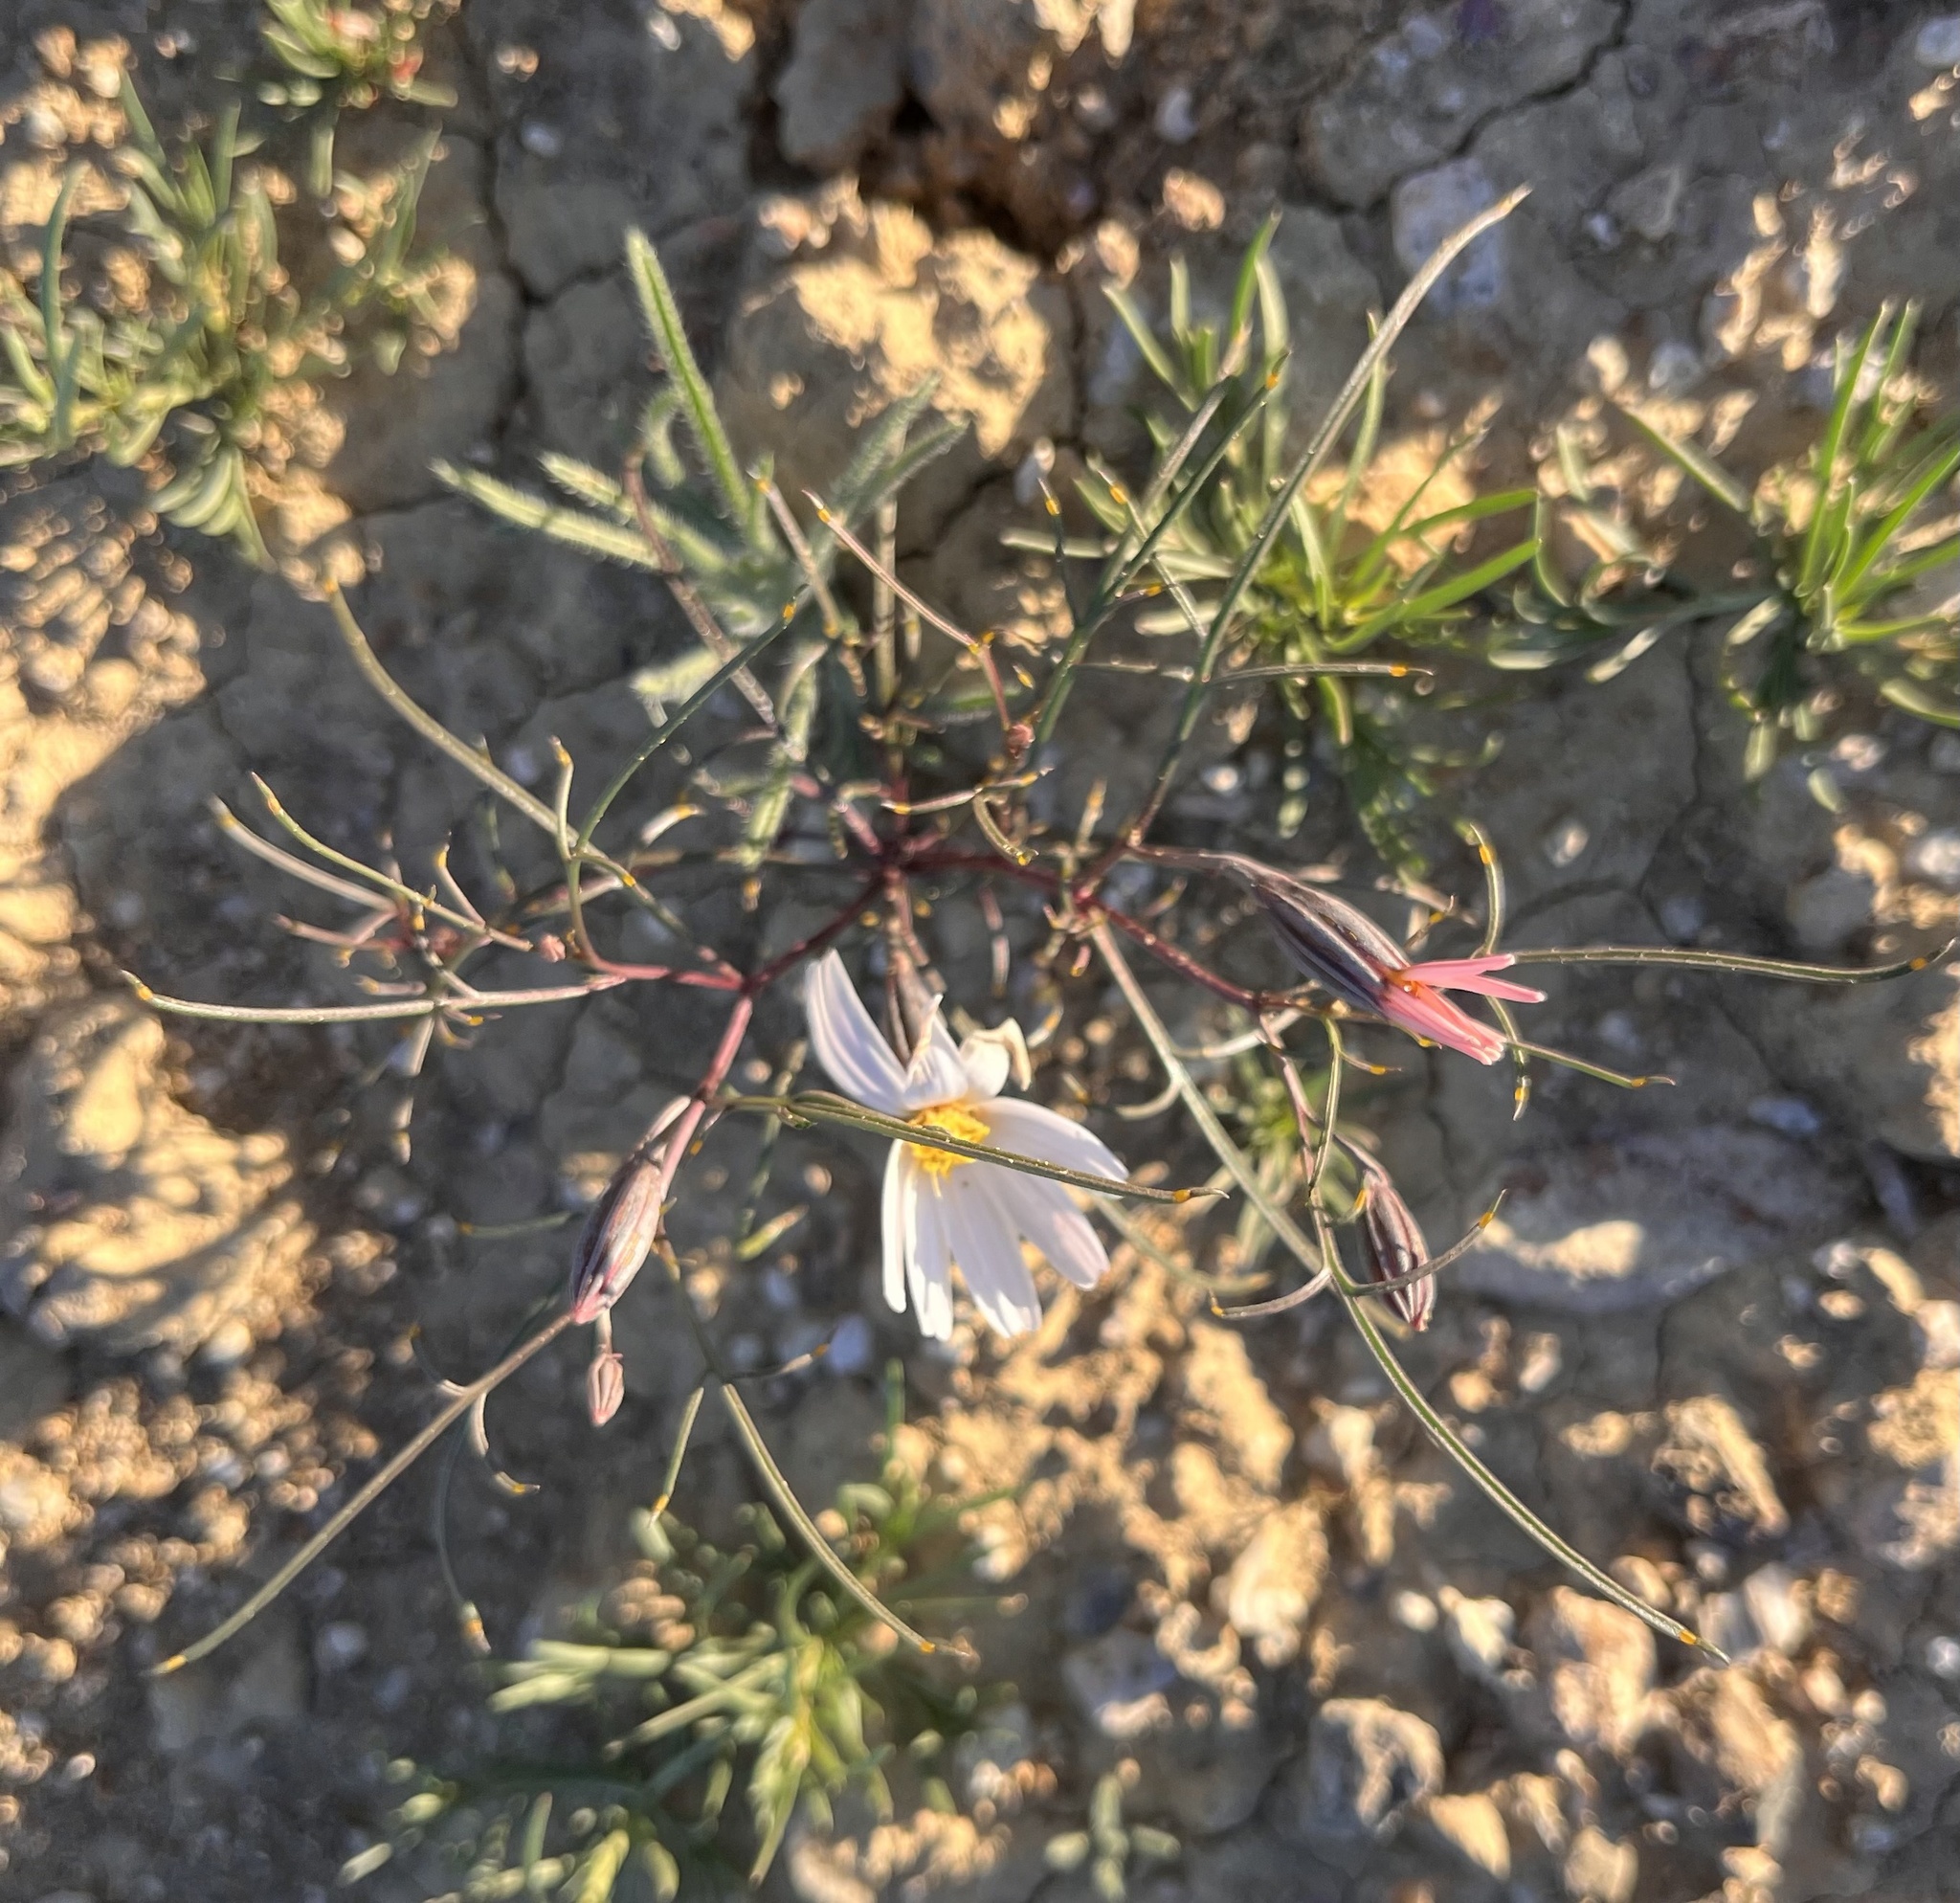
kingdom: Plantae
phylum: Tracheophyta
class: Magnoliopsida
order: Asterales
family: Asteraceae
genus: Nicolletia
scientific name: Nicolletia edwardsii
